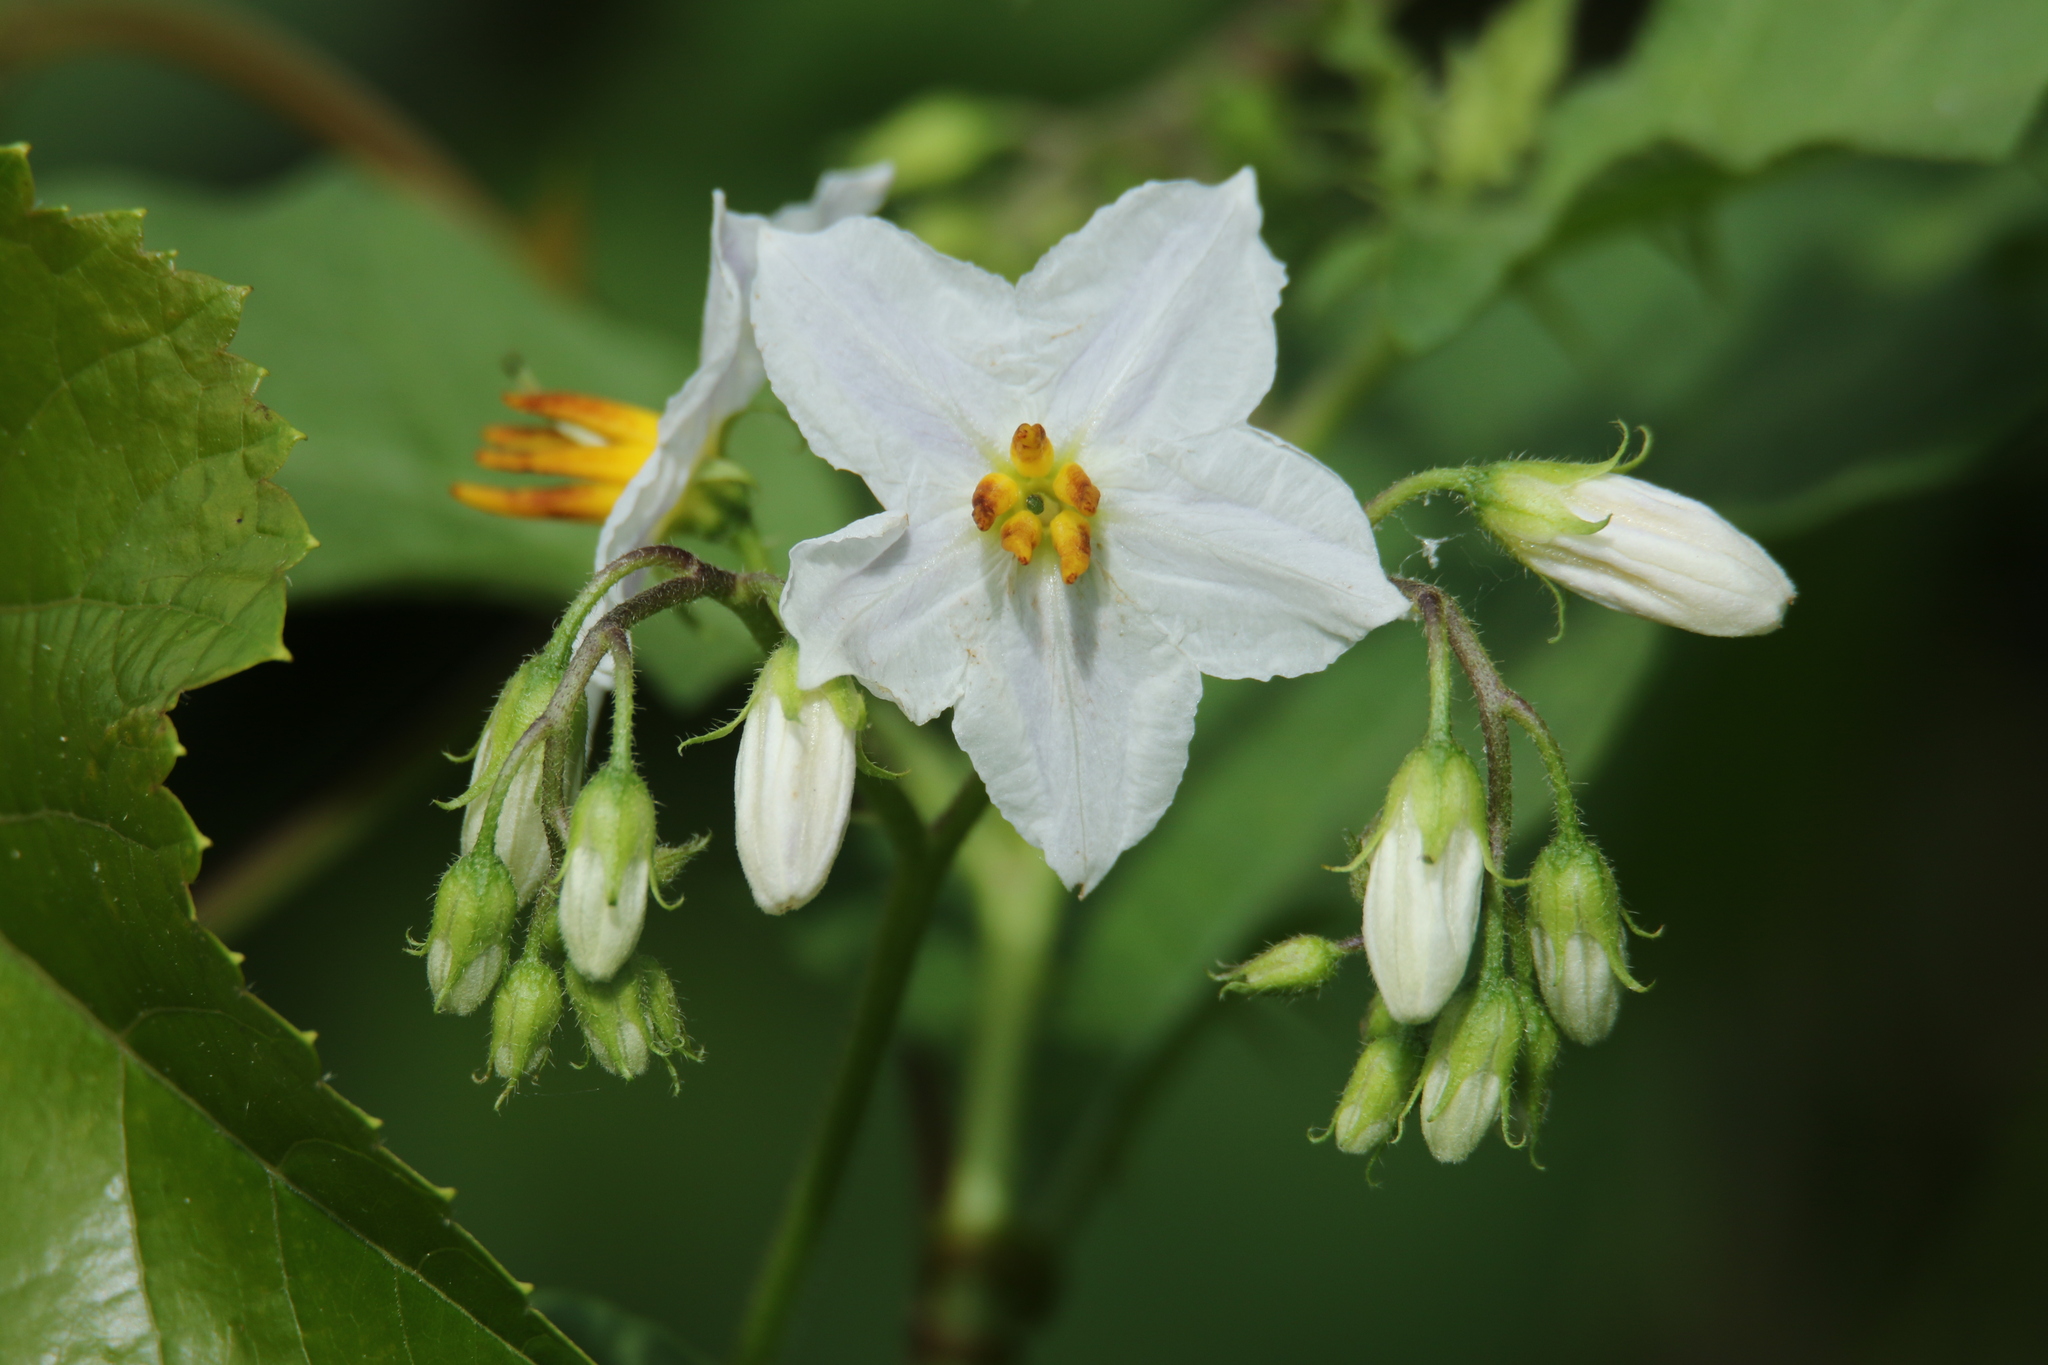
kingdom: Plantae
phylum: Tracheophyta
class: Magnoliopsida
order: Solanales
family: Solanaceae
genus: Solanum
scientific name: Solanum carolinense
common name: Horse-nettle
